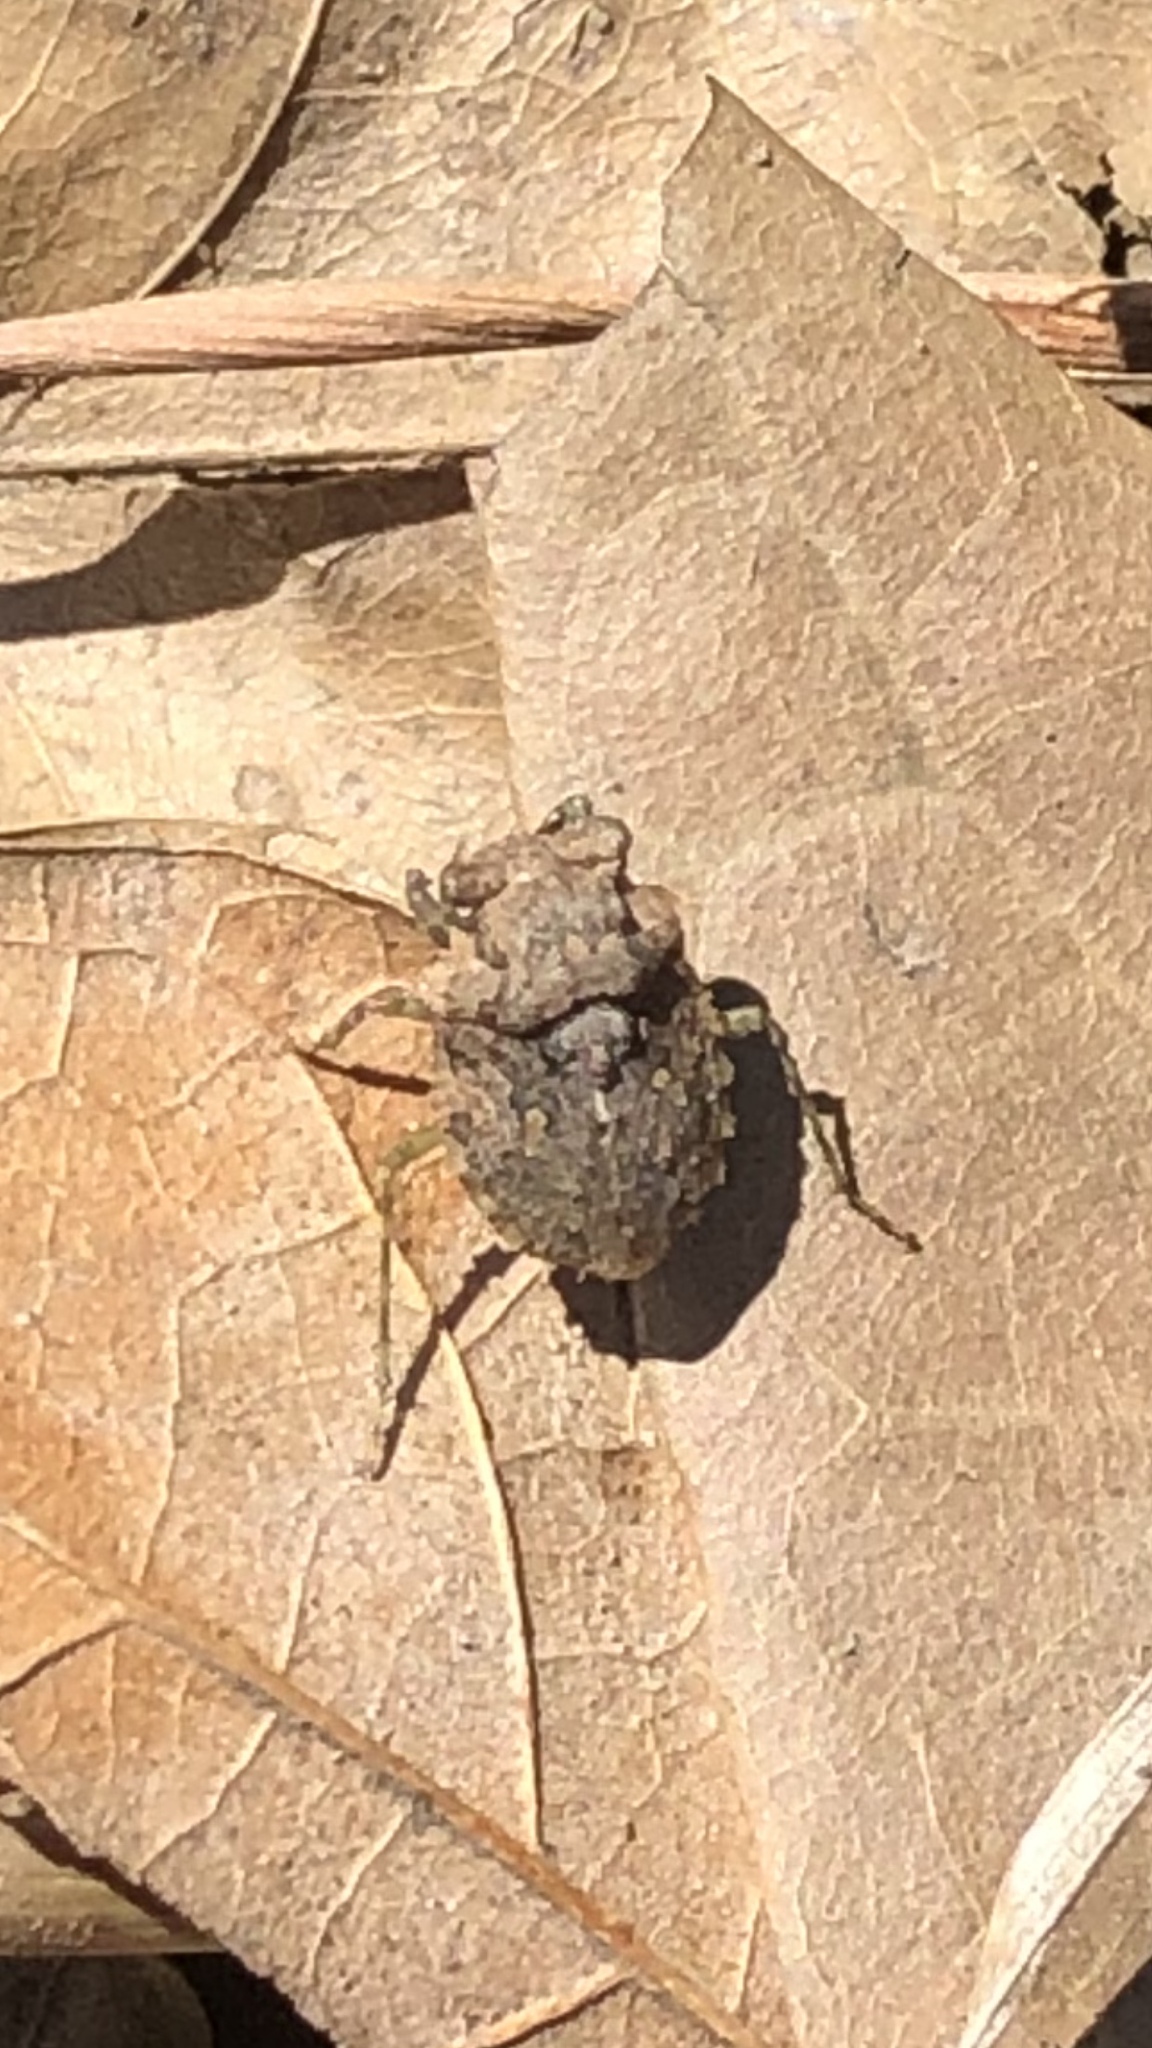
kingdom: Animalia
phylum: Arthropoda
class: Insecta
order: Hemiptera
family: Gelastocoridae
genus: Gelastocoris
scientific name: Gelastocoris oculatus
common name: Toad bug
